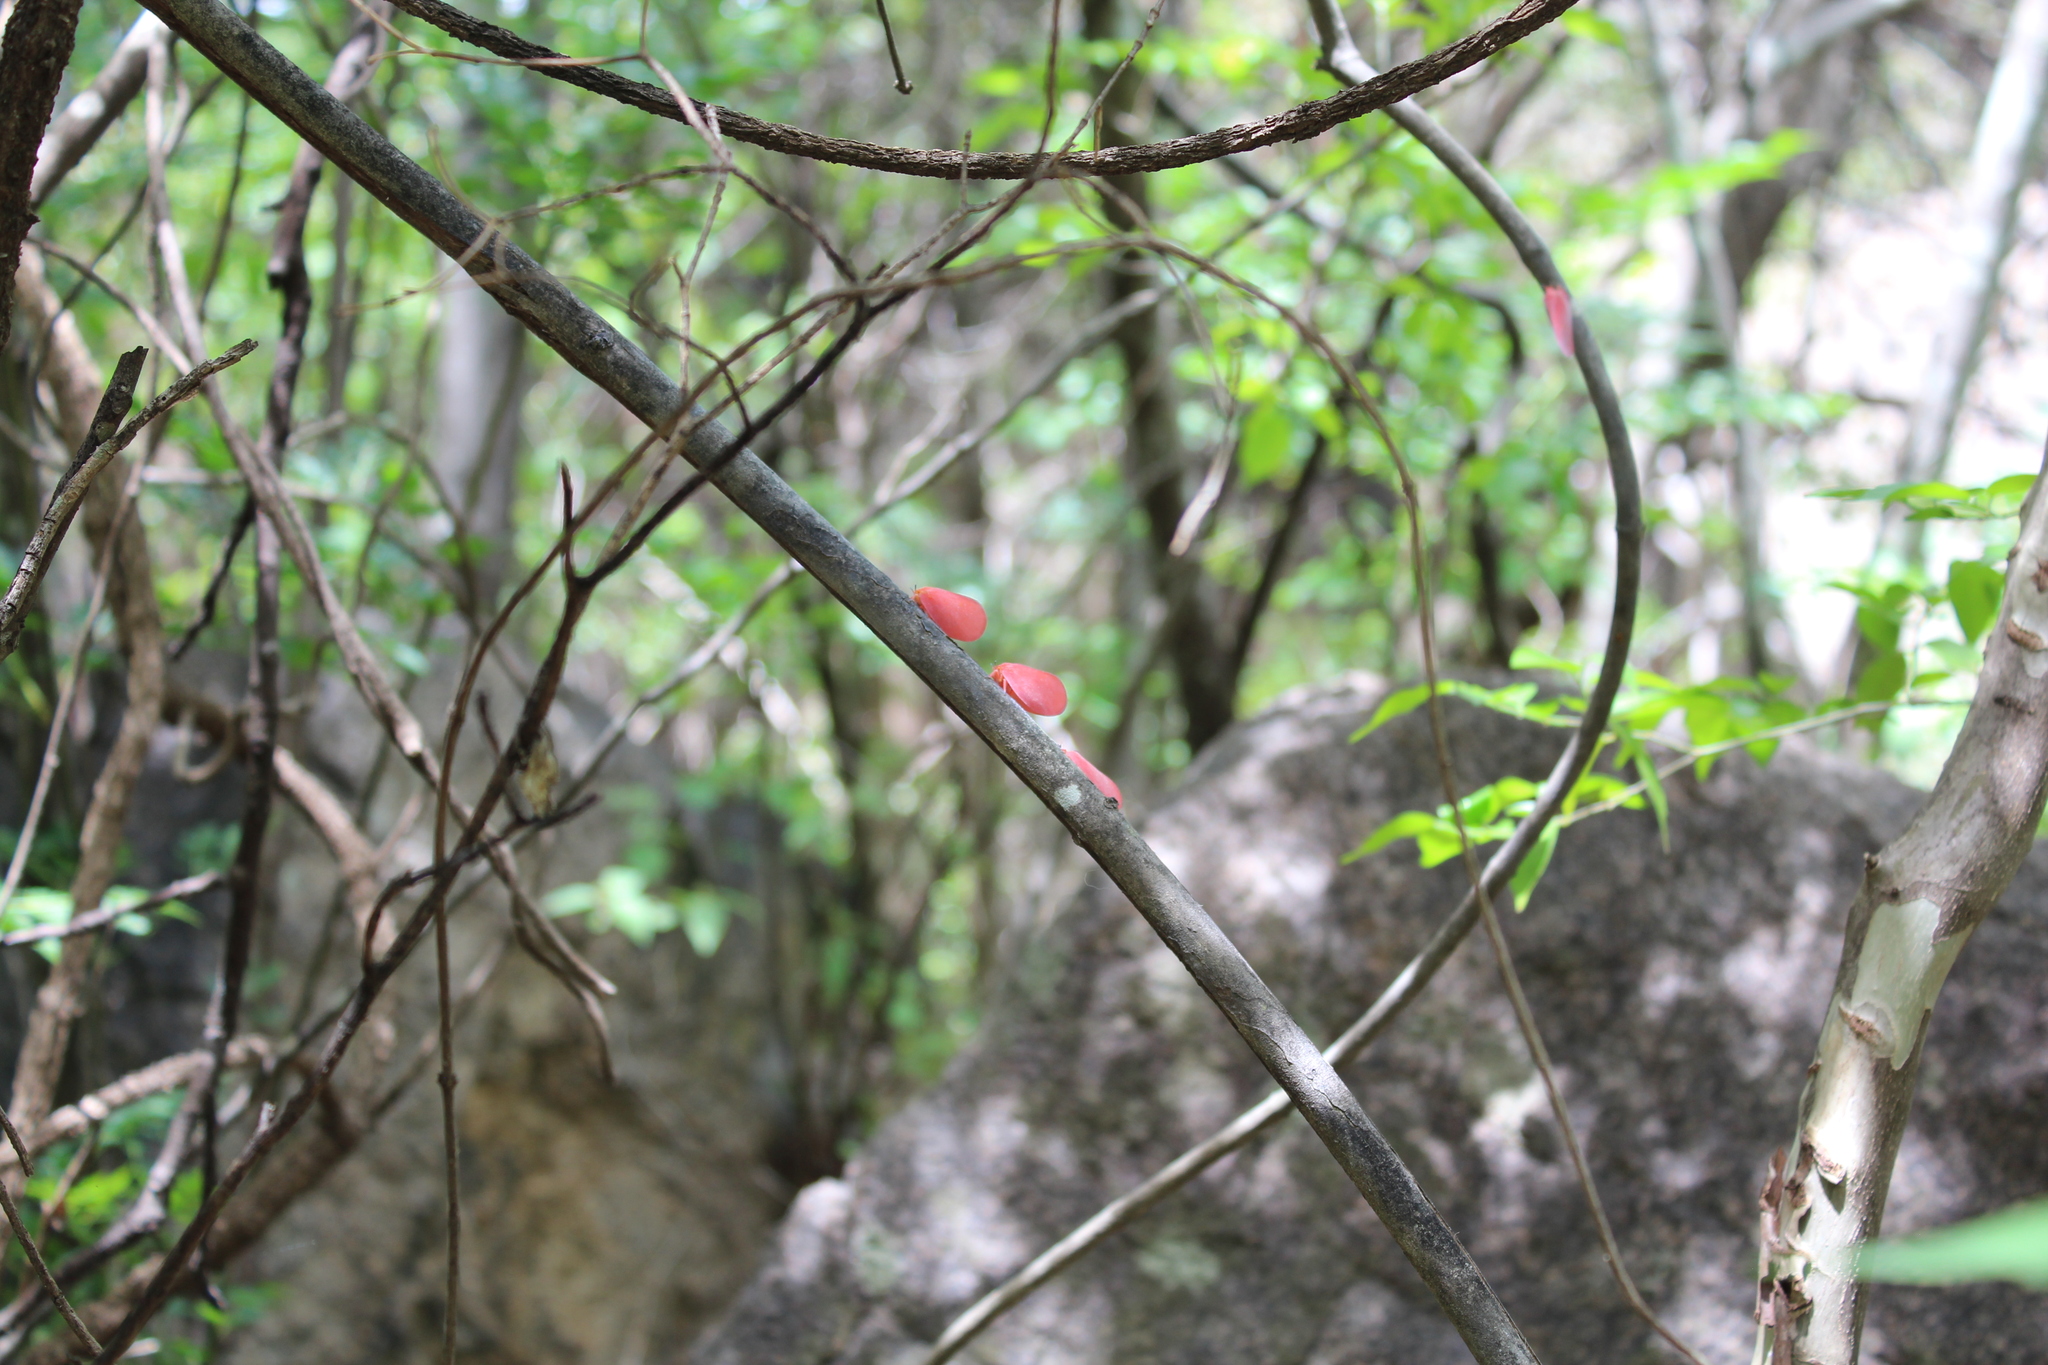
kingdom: Animalia
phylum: Arthropoda
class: Insecta
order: Hemiptera
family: Flatidae
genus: Flatida
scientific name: Flatida rosea
